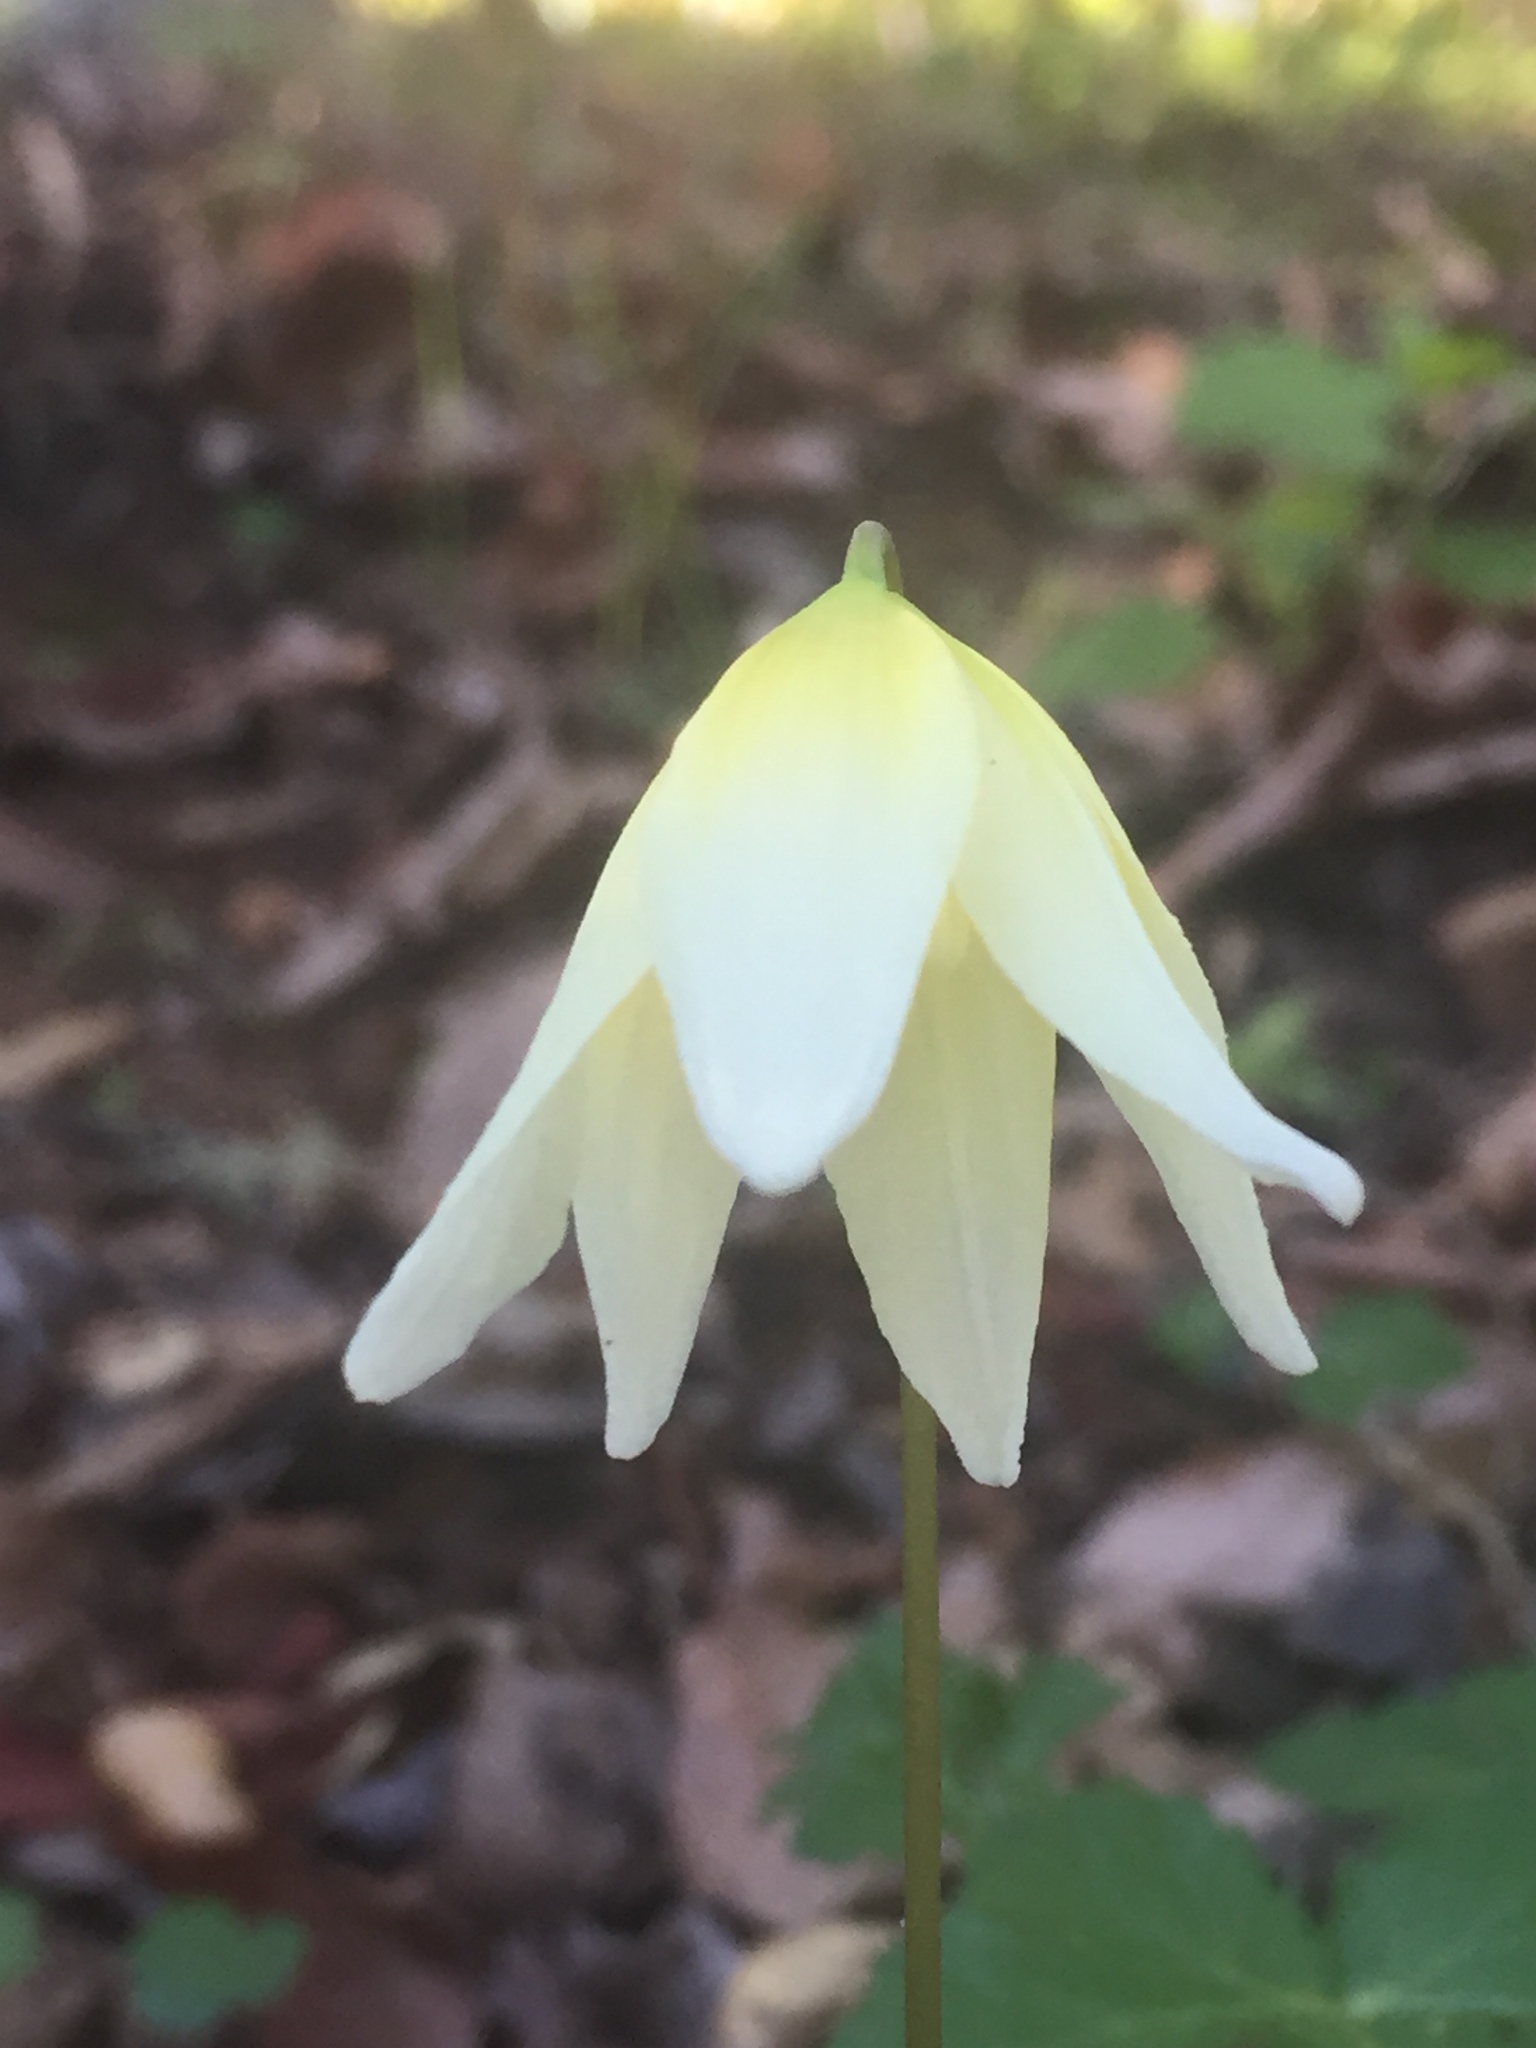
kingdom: Plantae
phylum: Tracheophyta
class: Liliopsida
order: Liliales
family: Liliaceae
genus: Erythronium
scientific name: Erythronium californicum
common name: Fawn-lily
